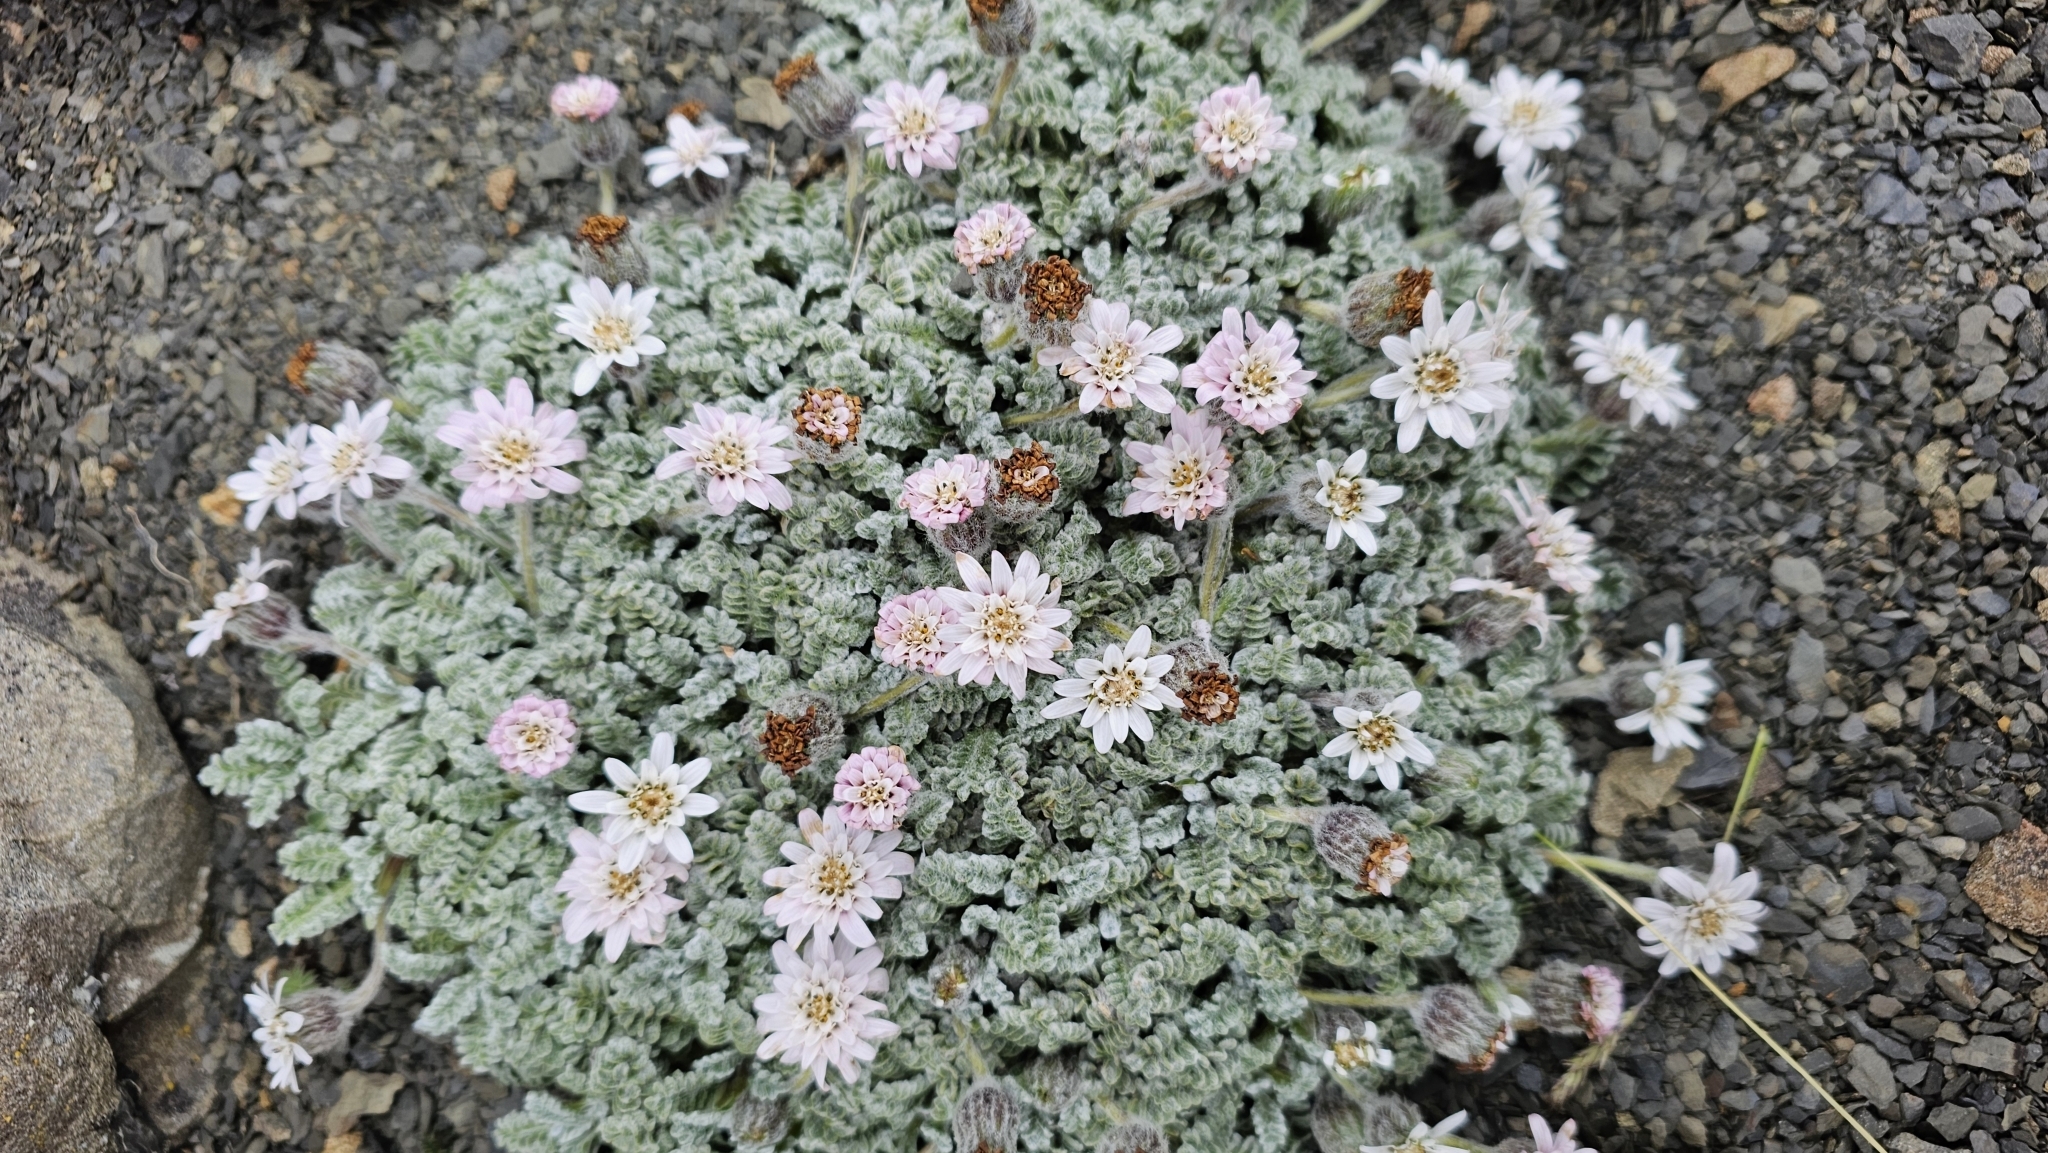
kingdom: Plantae
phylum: Tracheophyta
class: Magnoliopsida
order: Asterales
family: Asteraceae
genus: Leucheria
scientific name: Leucheria leontopodioides
